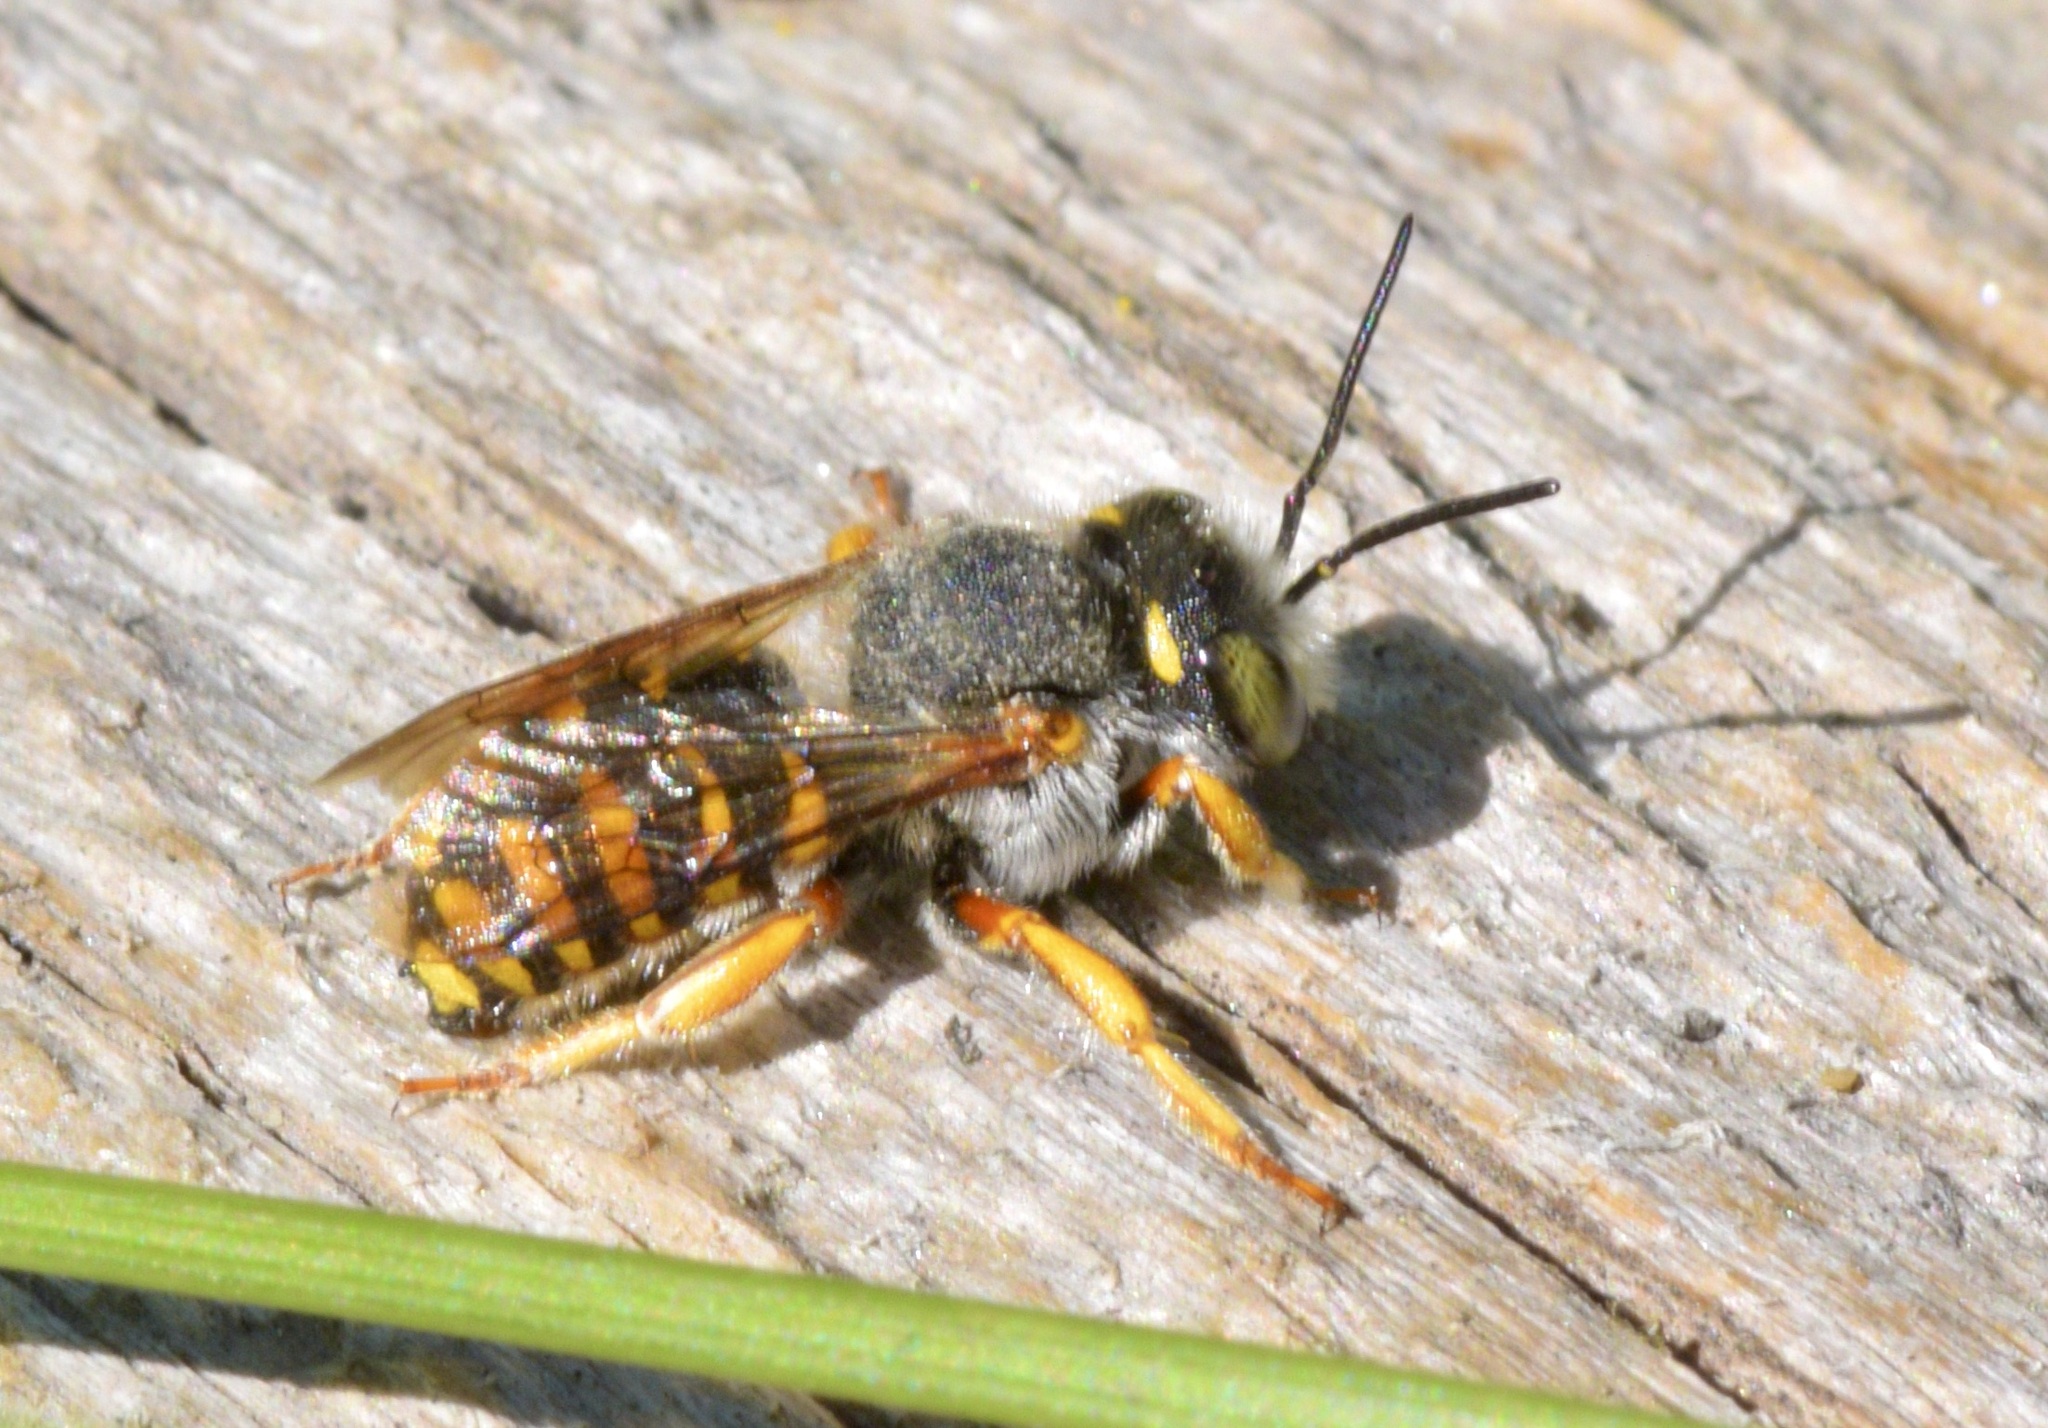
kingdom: Animalia
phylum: Arthropoda
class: Insecta
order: Hymenoptera
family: Megachilidae
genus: Anthidium
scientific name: Anthidium oblongatum
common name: Oblong wool carder bee
